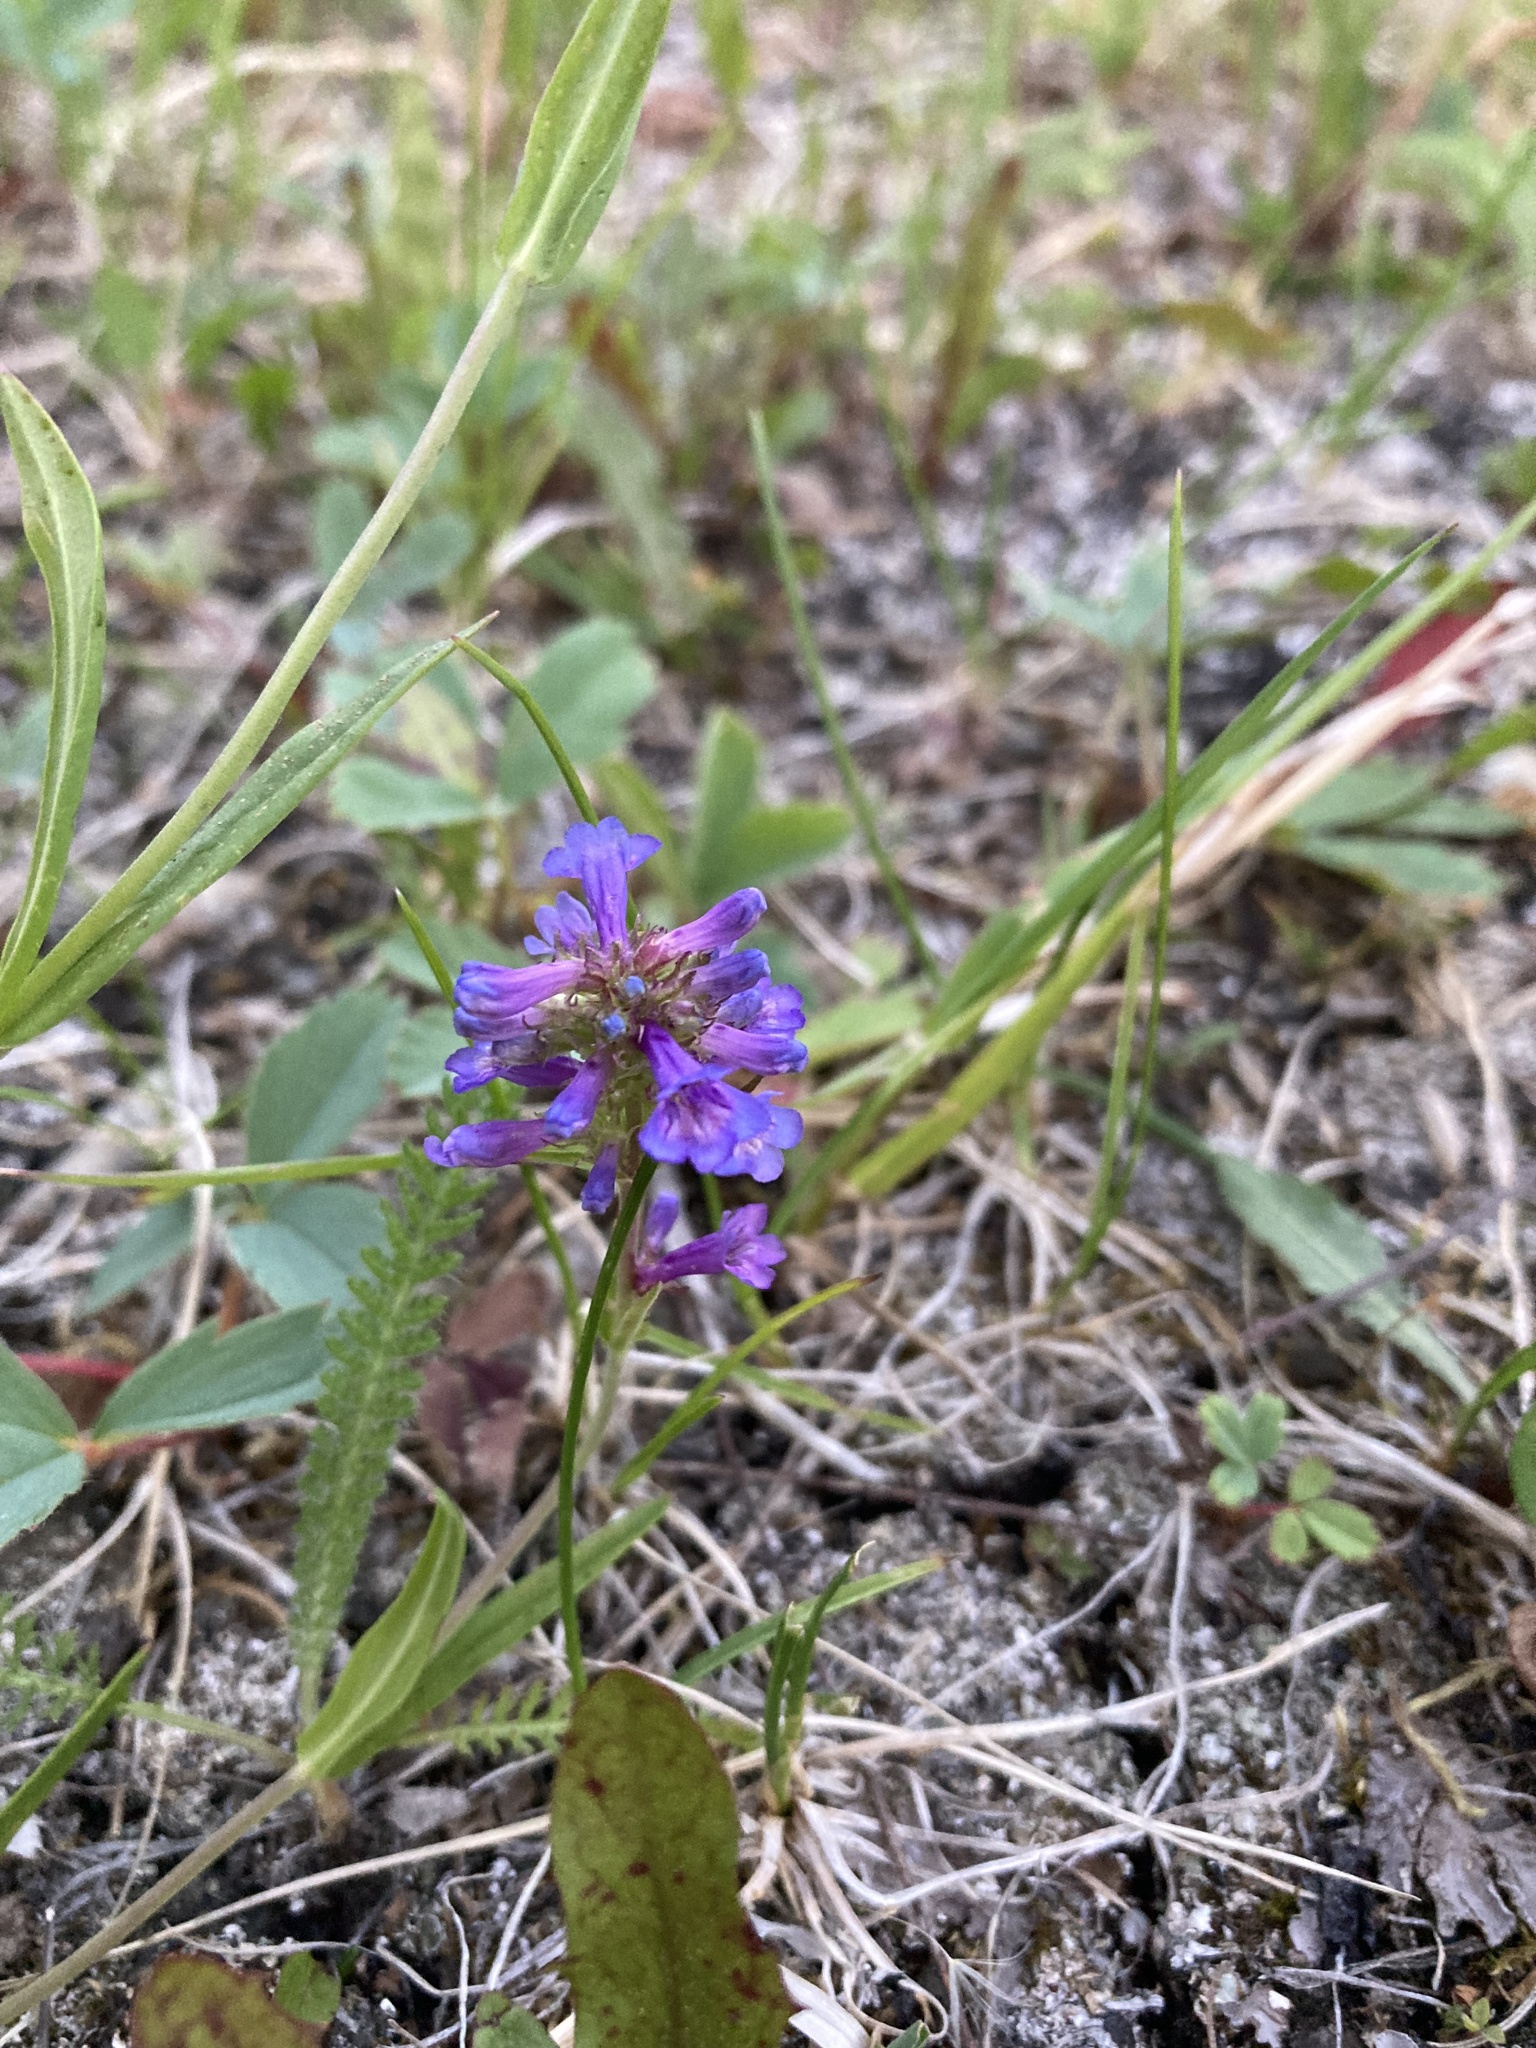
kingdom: Plantae
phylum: Tracheophyta
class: Magnoliopsida
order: Lamiales
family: Plantaginaceae
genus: Penstemon
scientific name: Penstemon procerus
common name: Small-flower penstemon
